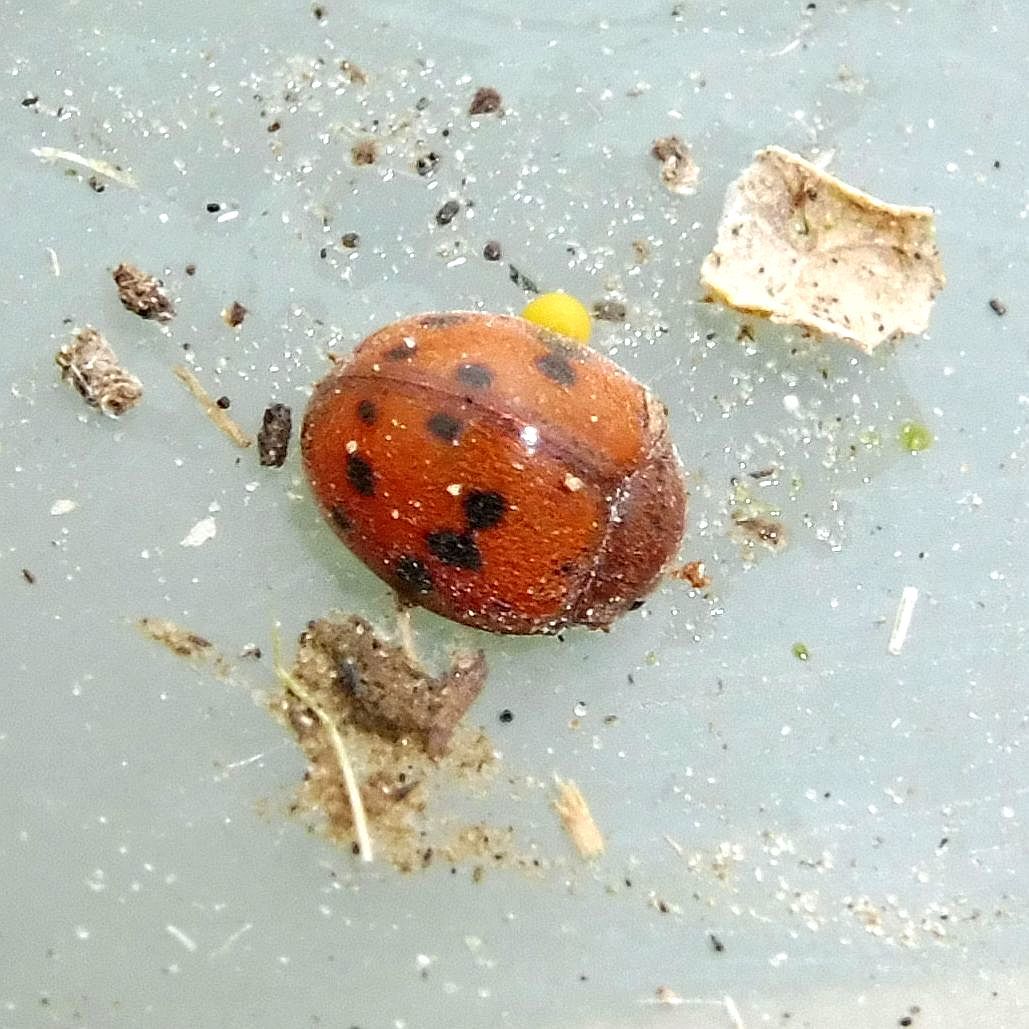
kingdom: Animalia
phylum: Arthropoda
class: Insecta
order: Coleoptera
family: Coccinellidae
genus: Subcoccinella
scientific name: Subcoccinella vigintiquatuorpunctata
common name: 24-spot ladybird
